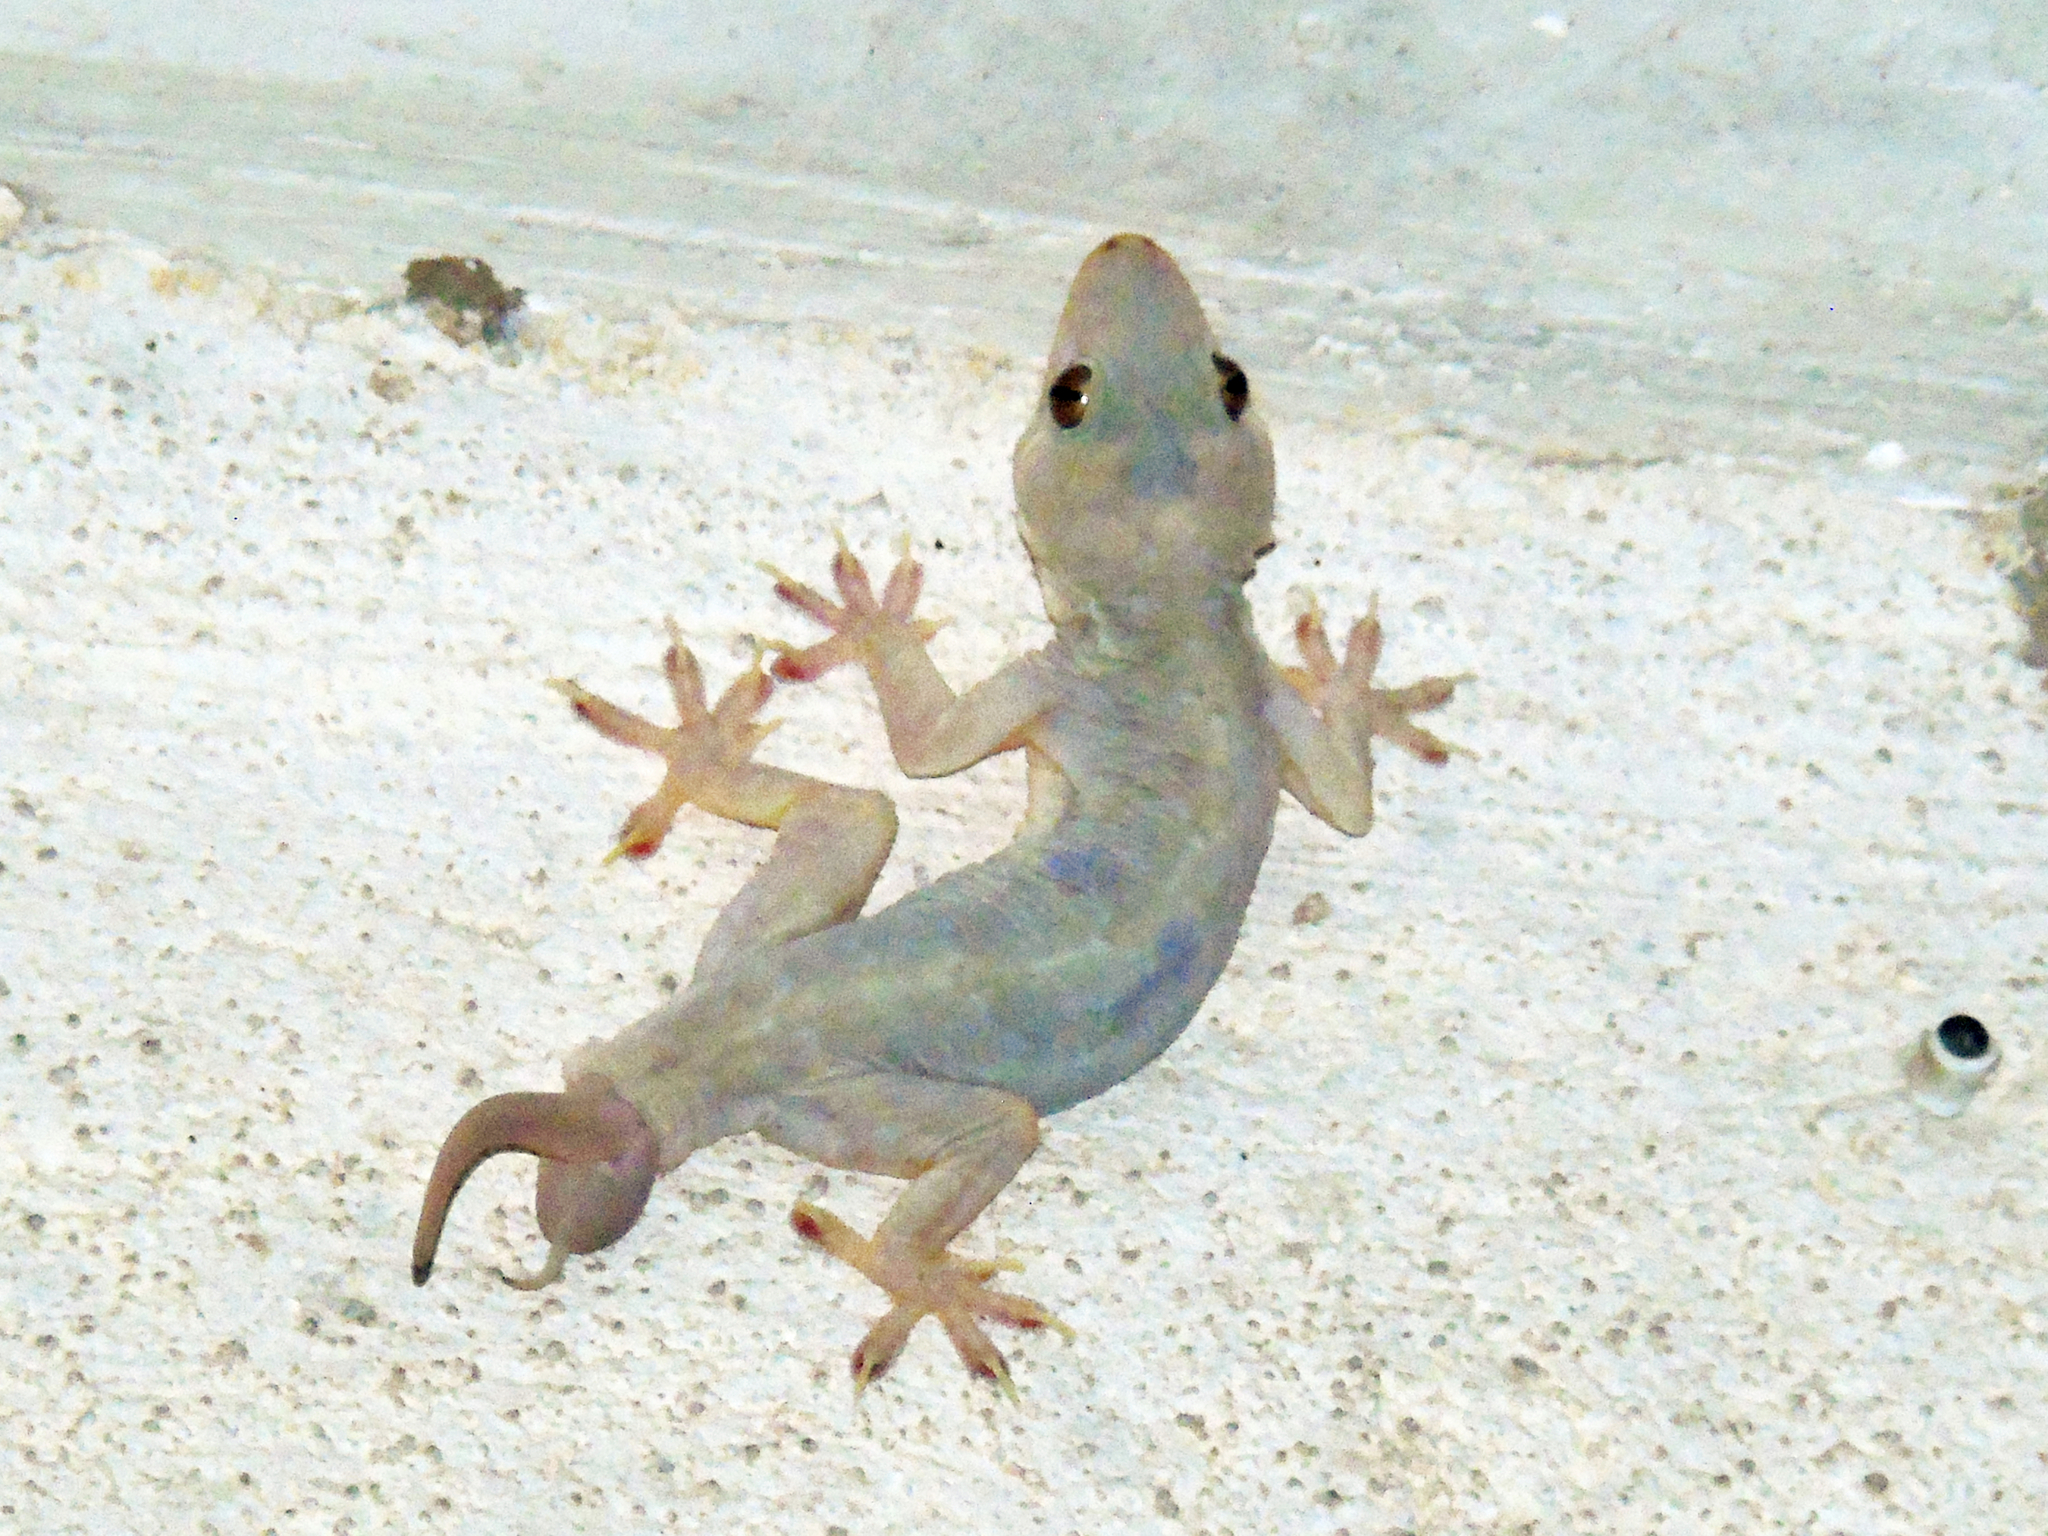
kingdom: Animalia
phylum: Chordata
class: Squamata
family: Gekkonidae
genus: Hemidactylus
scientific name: Hemidactylus flaviviridis
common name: Northern house gecko
